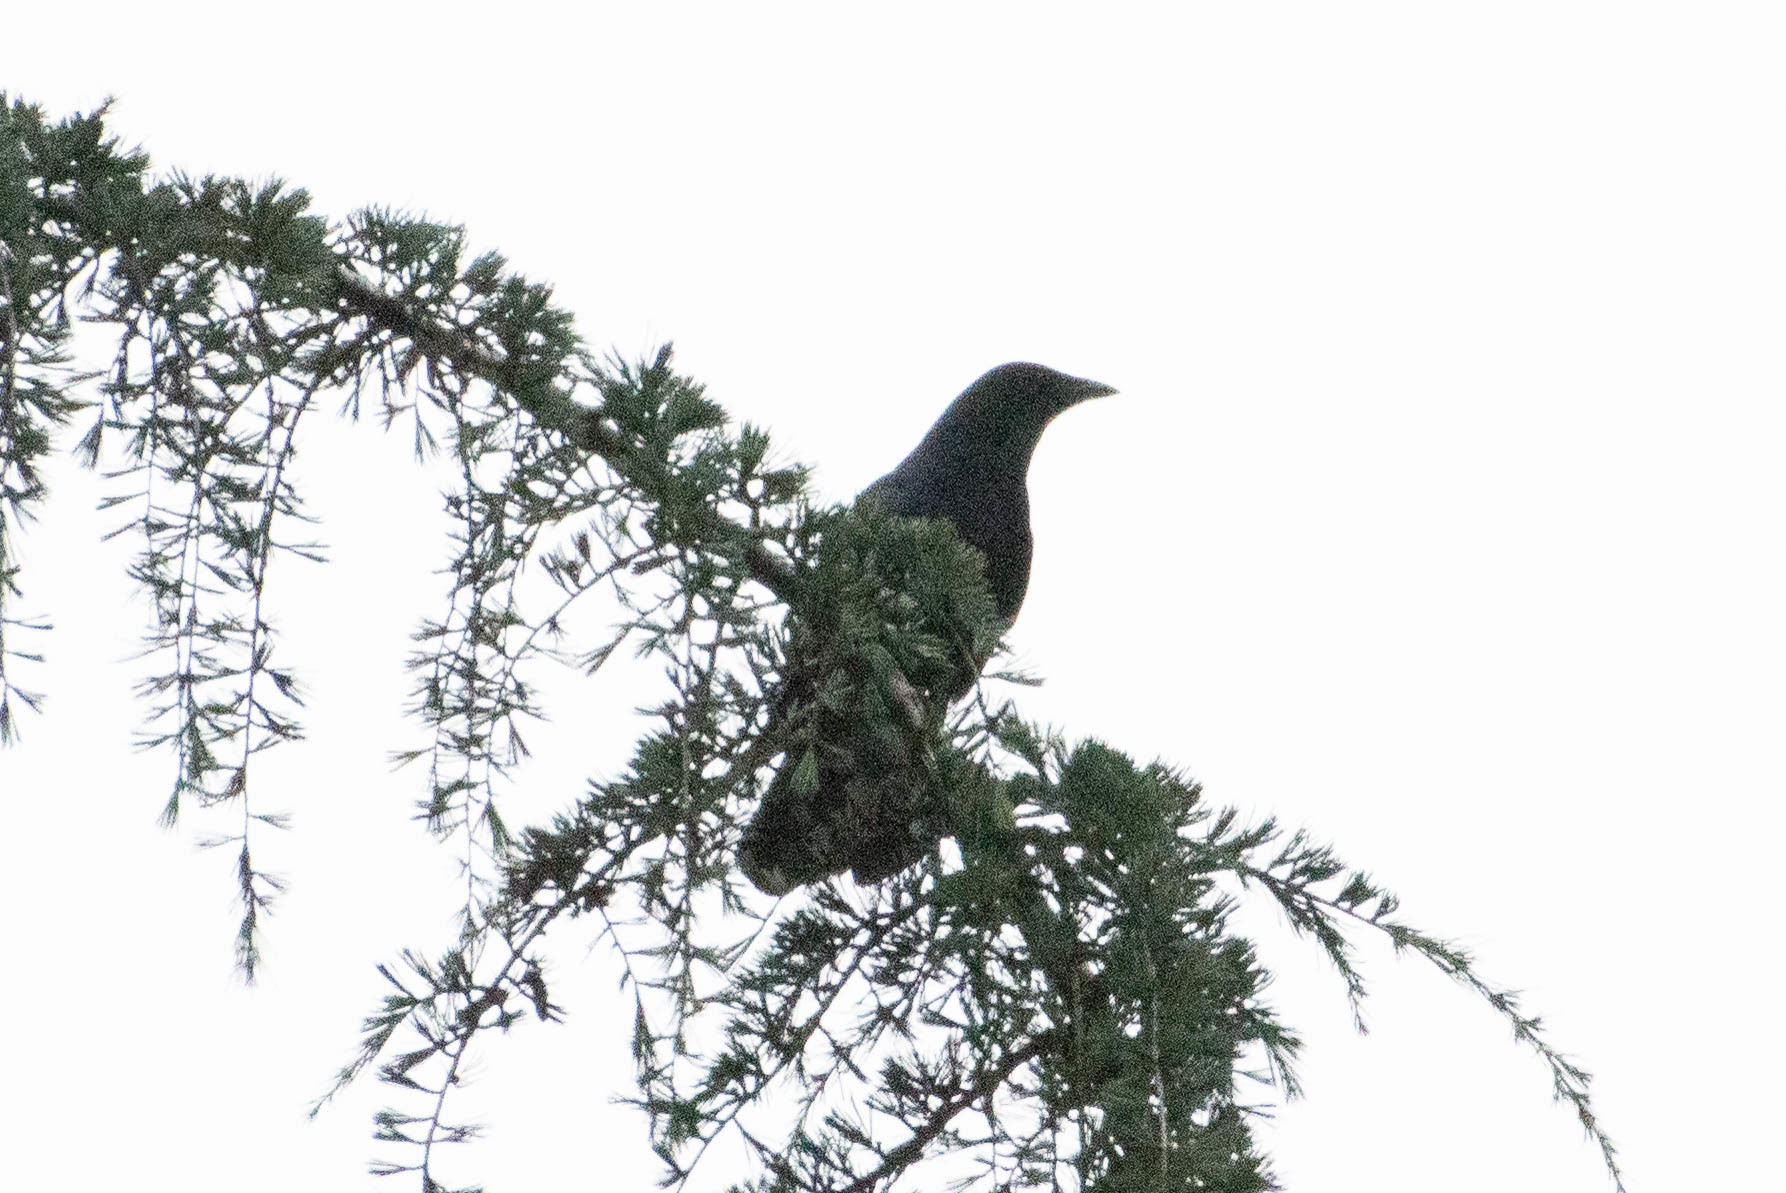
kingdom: Animalia
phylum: Chordata
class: Aves
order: Passeriformes
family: Corvidae
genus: Corvus
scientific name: Corvus brachyrhynchos
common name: American crow
